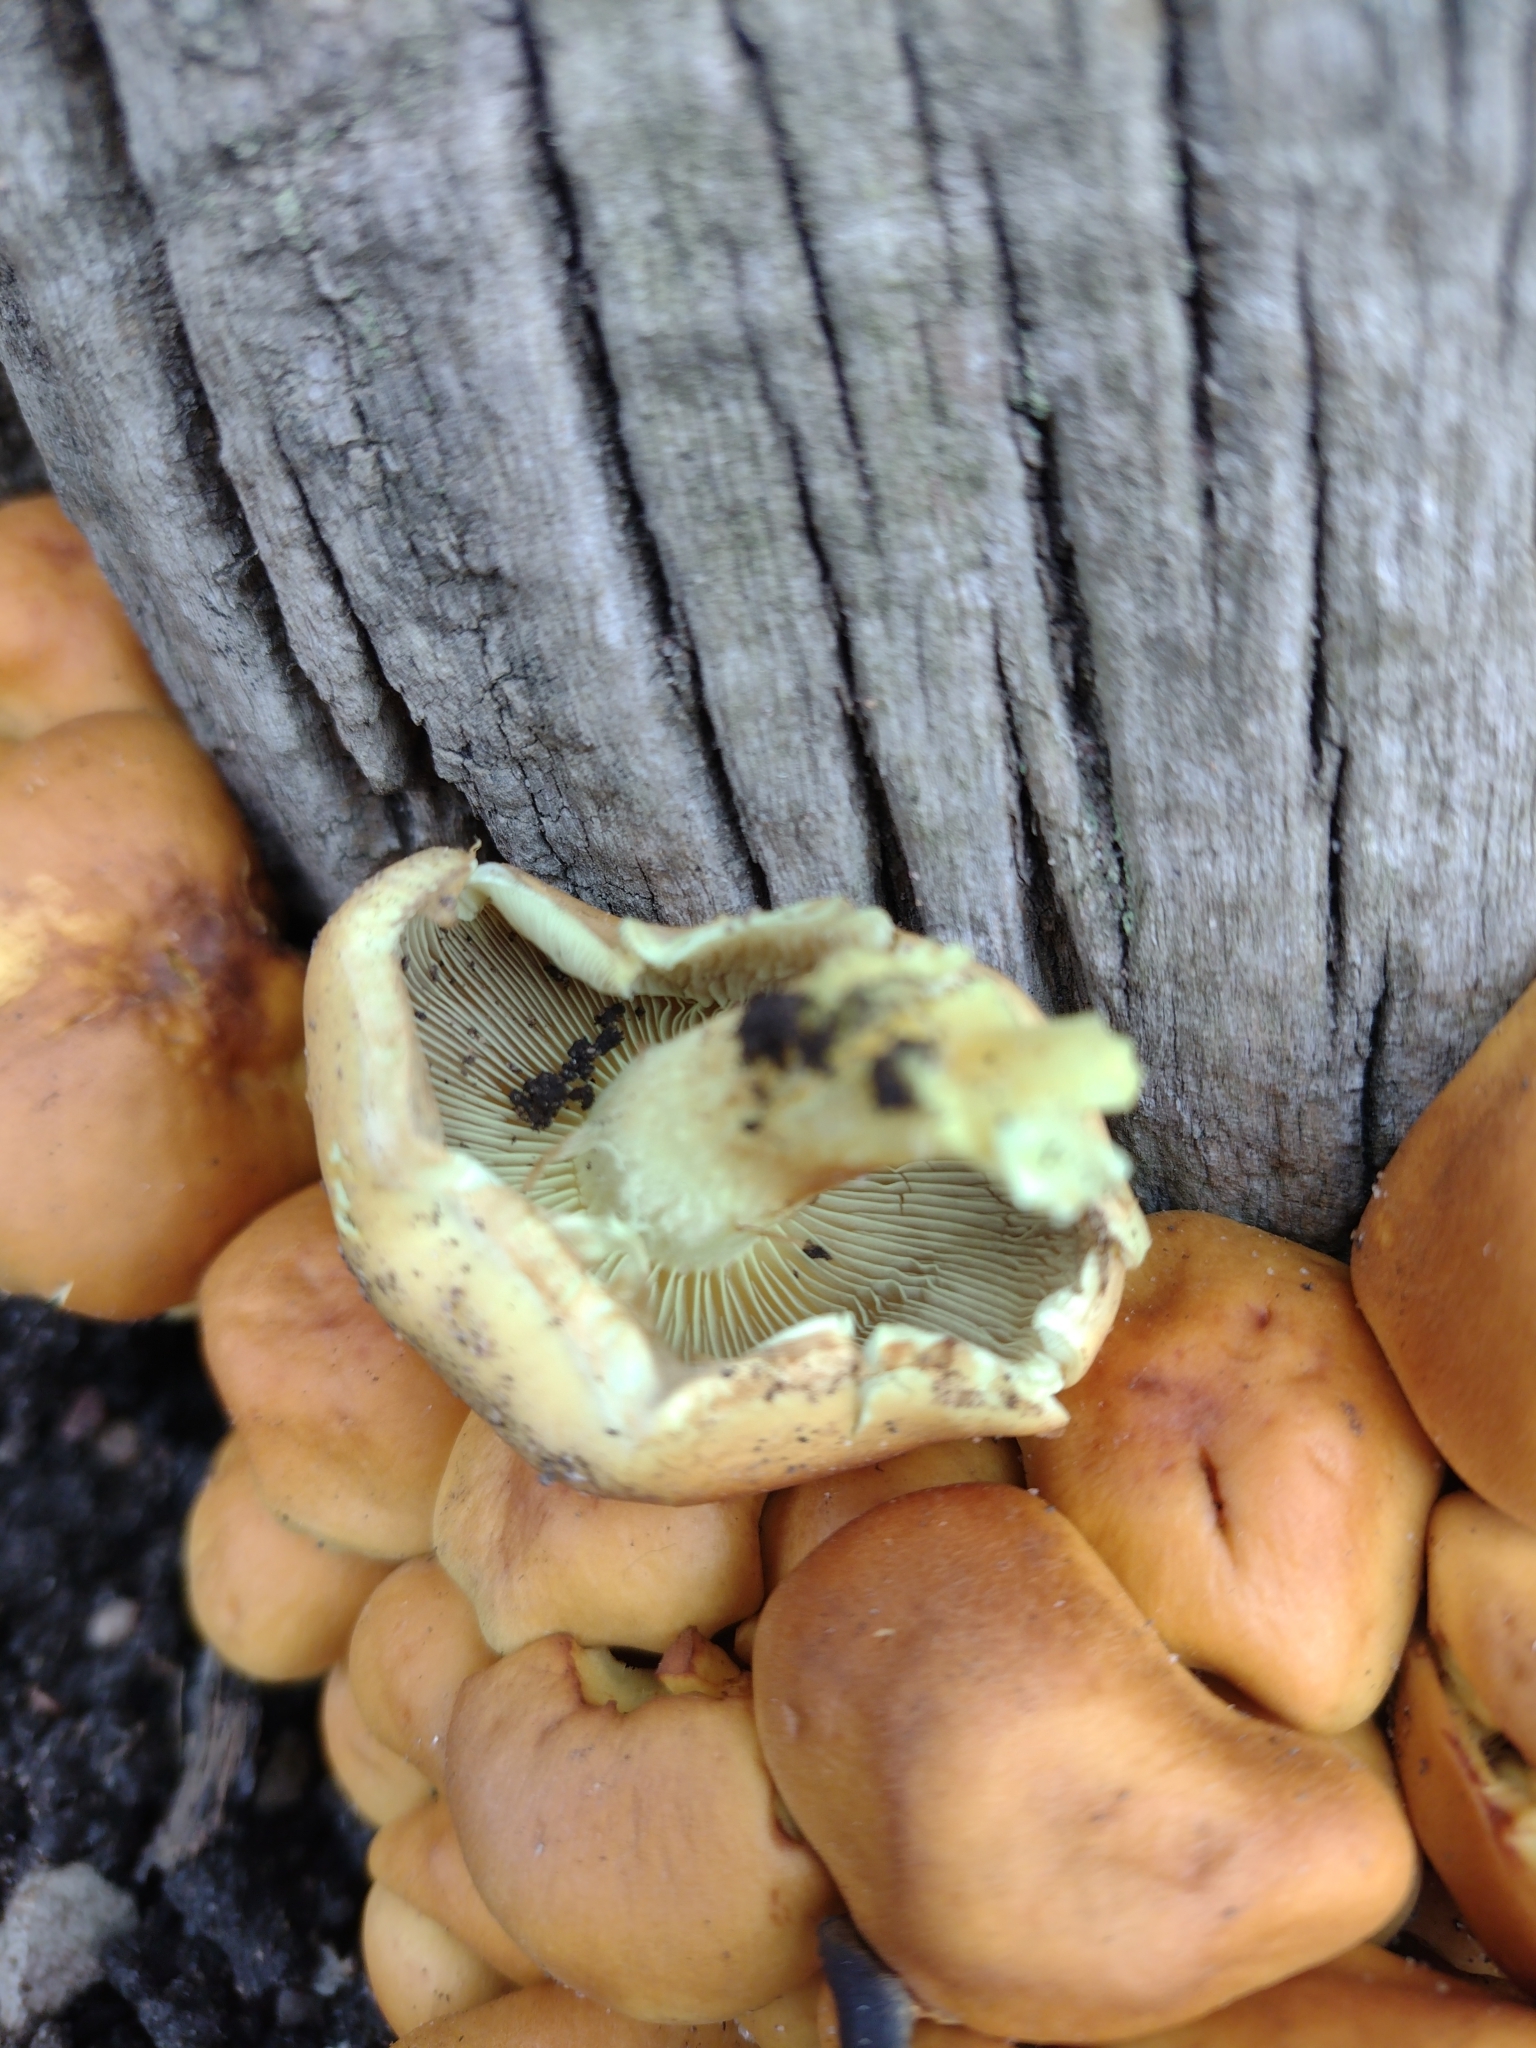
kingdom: Fungi
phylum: Basidiomycota
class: Agaricomycetes
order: Agaricales
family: Strophariaceae
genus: Hypholoma
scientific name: Hypholoma fasciculare
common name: Sulphur tuft
